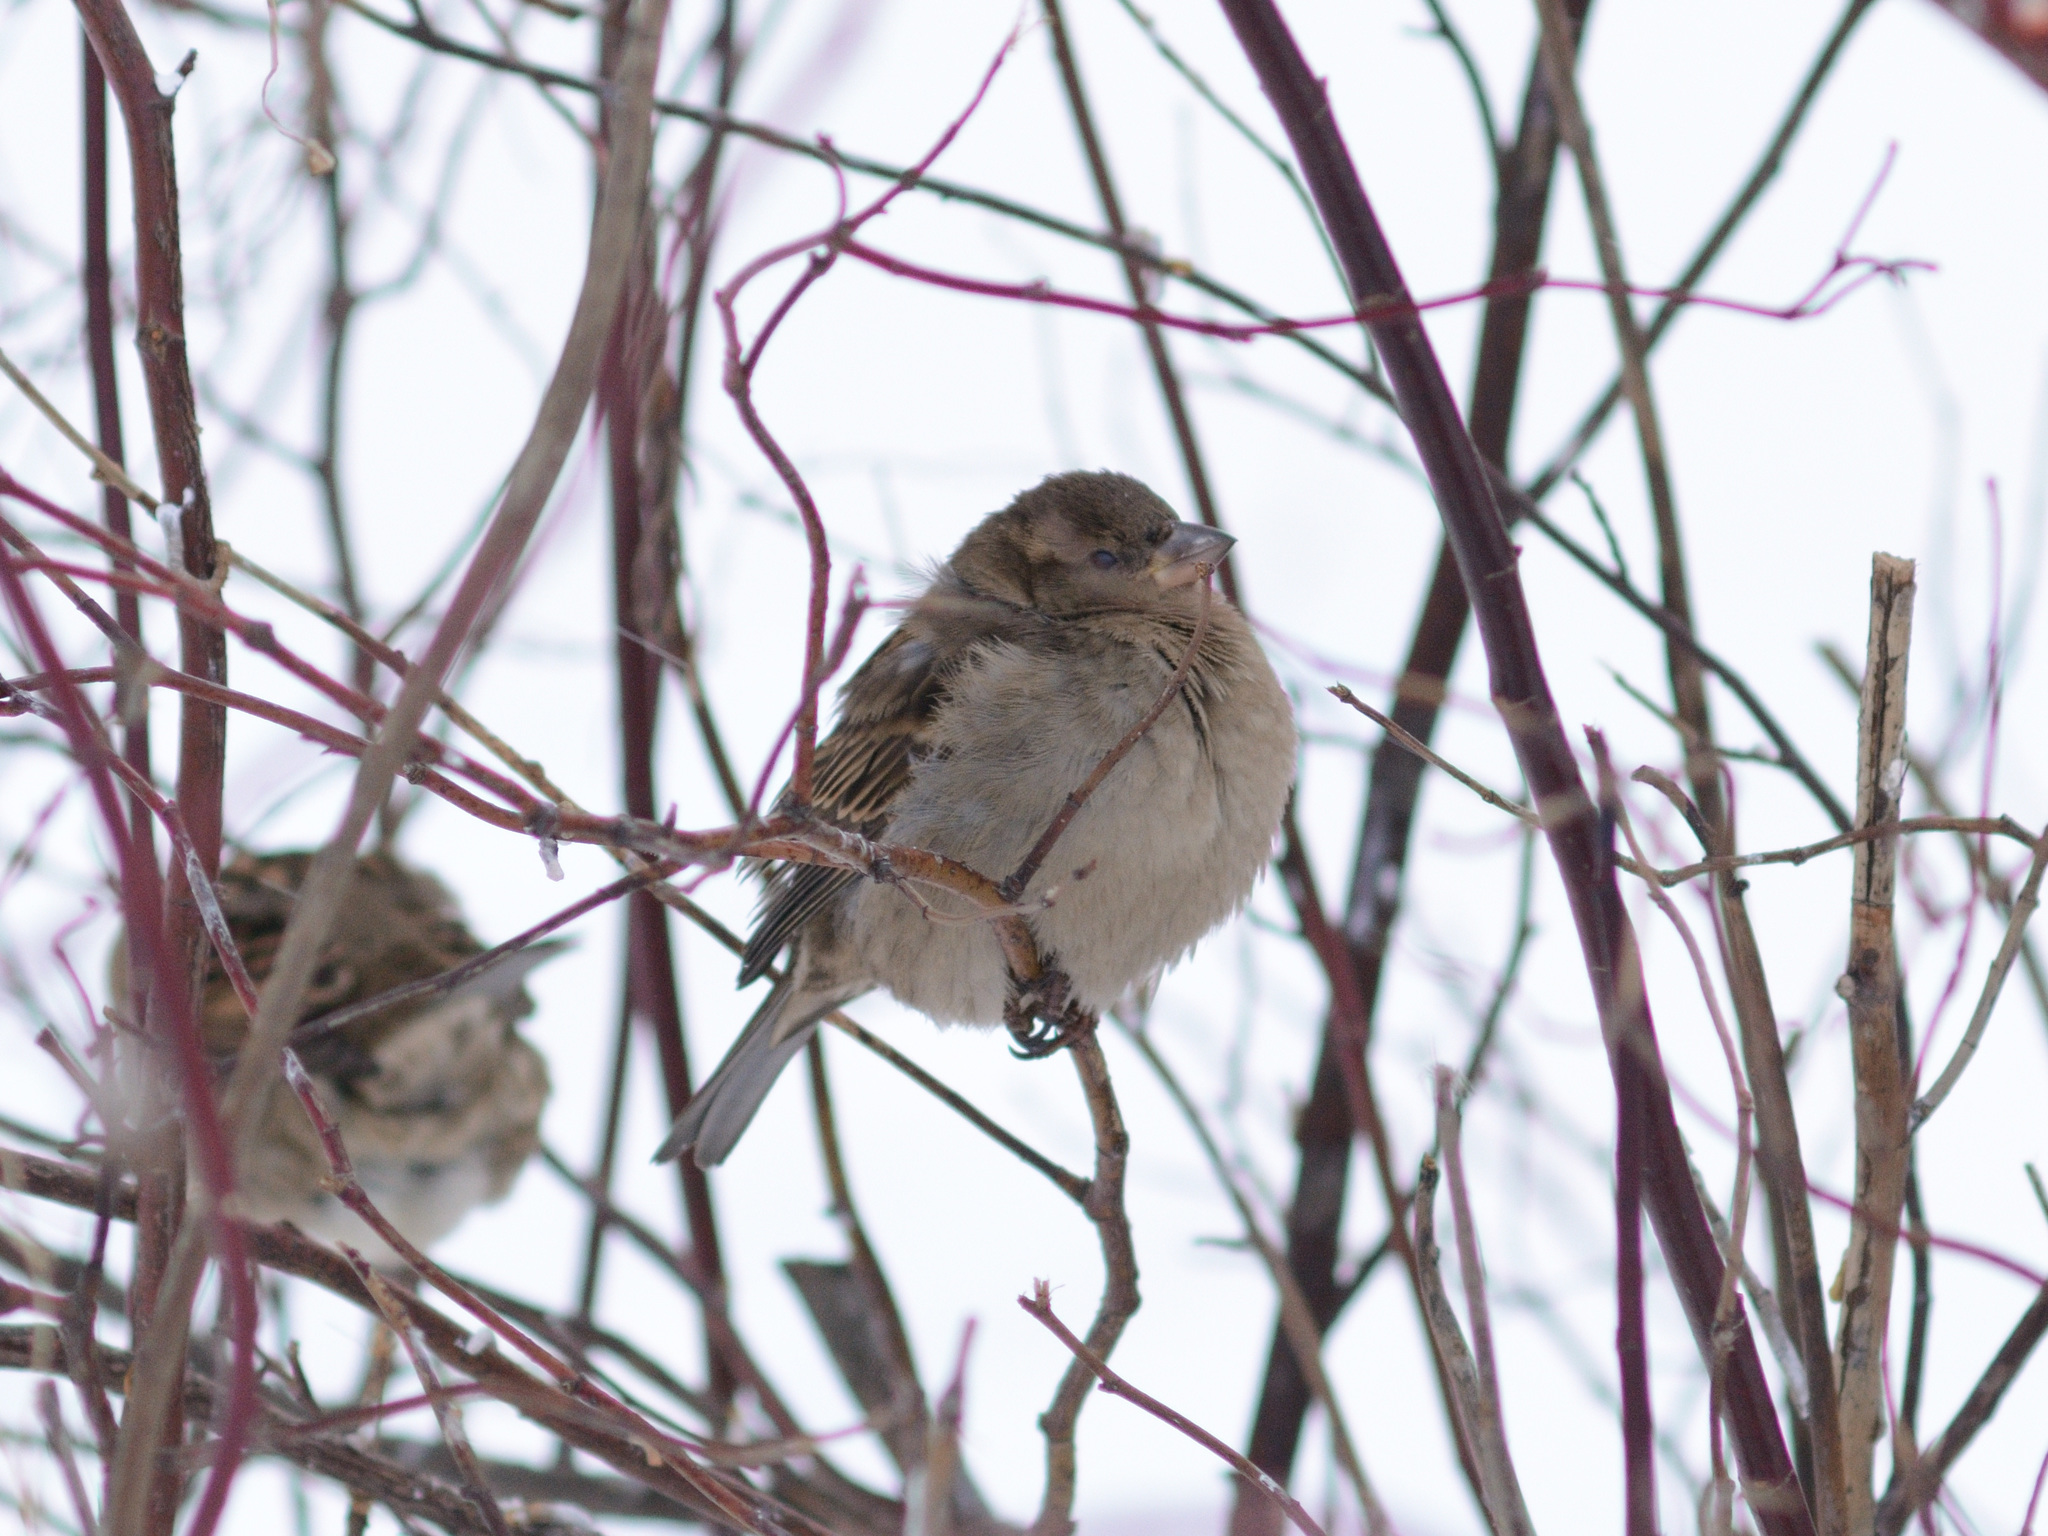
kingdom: Animalia
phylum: Chordata
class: Aves
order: Passeriformes
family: Passeridae
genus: Passer
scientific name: Passer domesticus
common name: House sparrow
